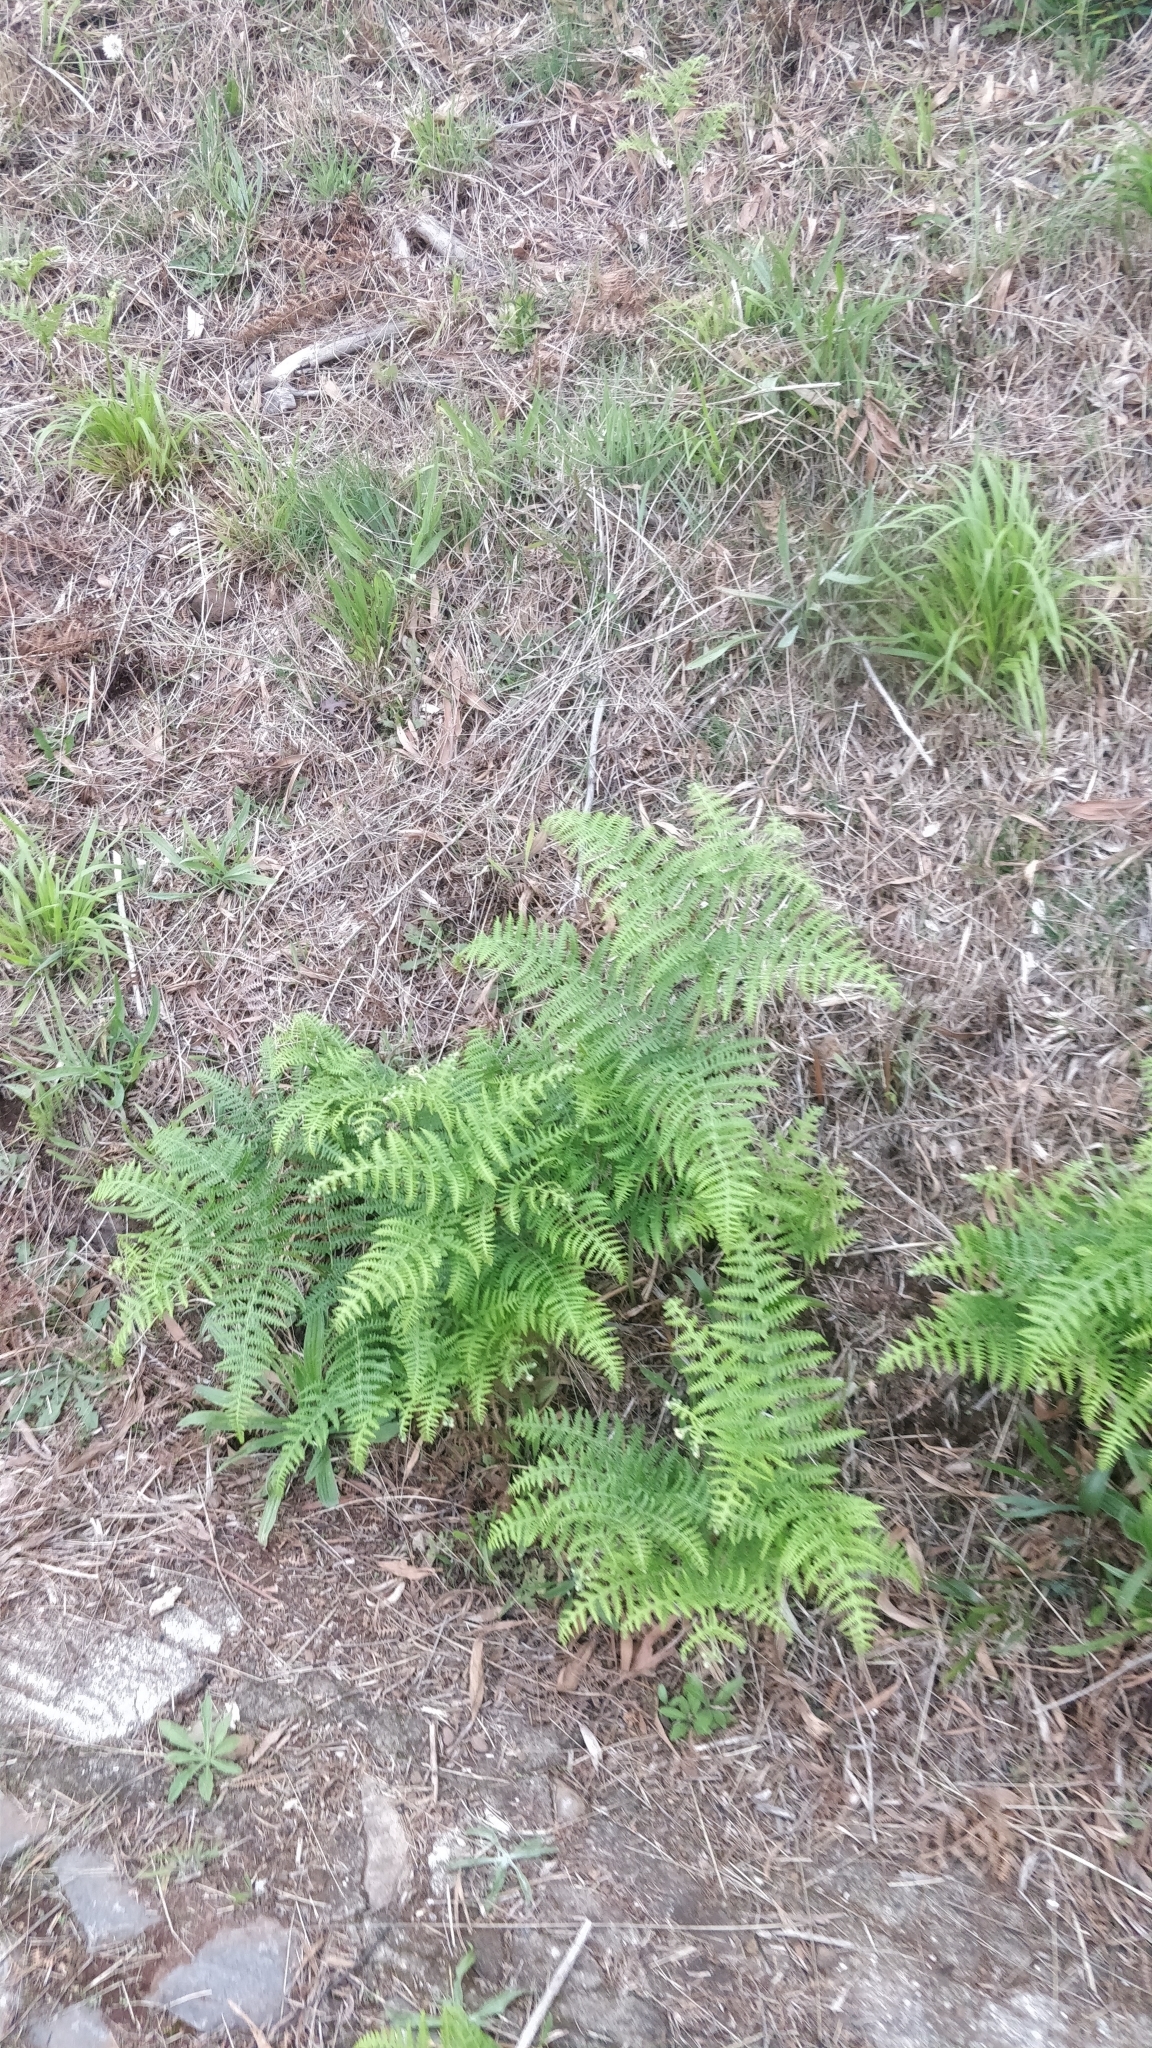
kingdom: Plantae
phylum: Tracheophyta
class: Polypodiopsida
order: Polypodiales
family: Dennstaedtiaceae
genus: Pteridium
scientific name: Pteridium aquilinum
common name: Bracken
